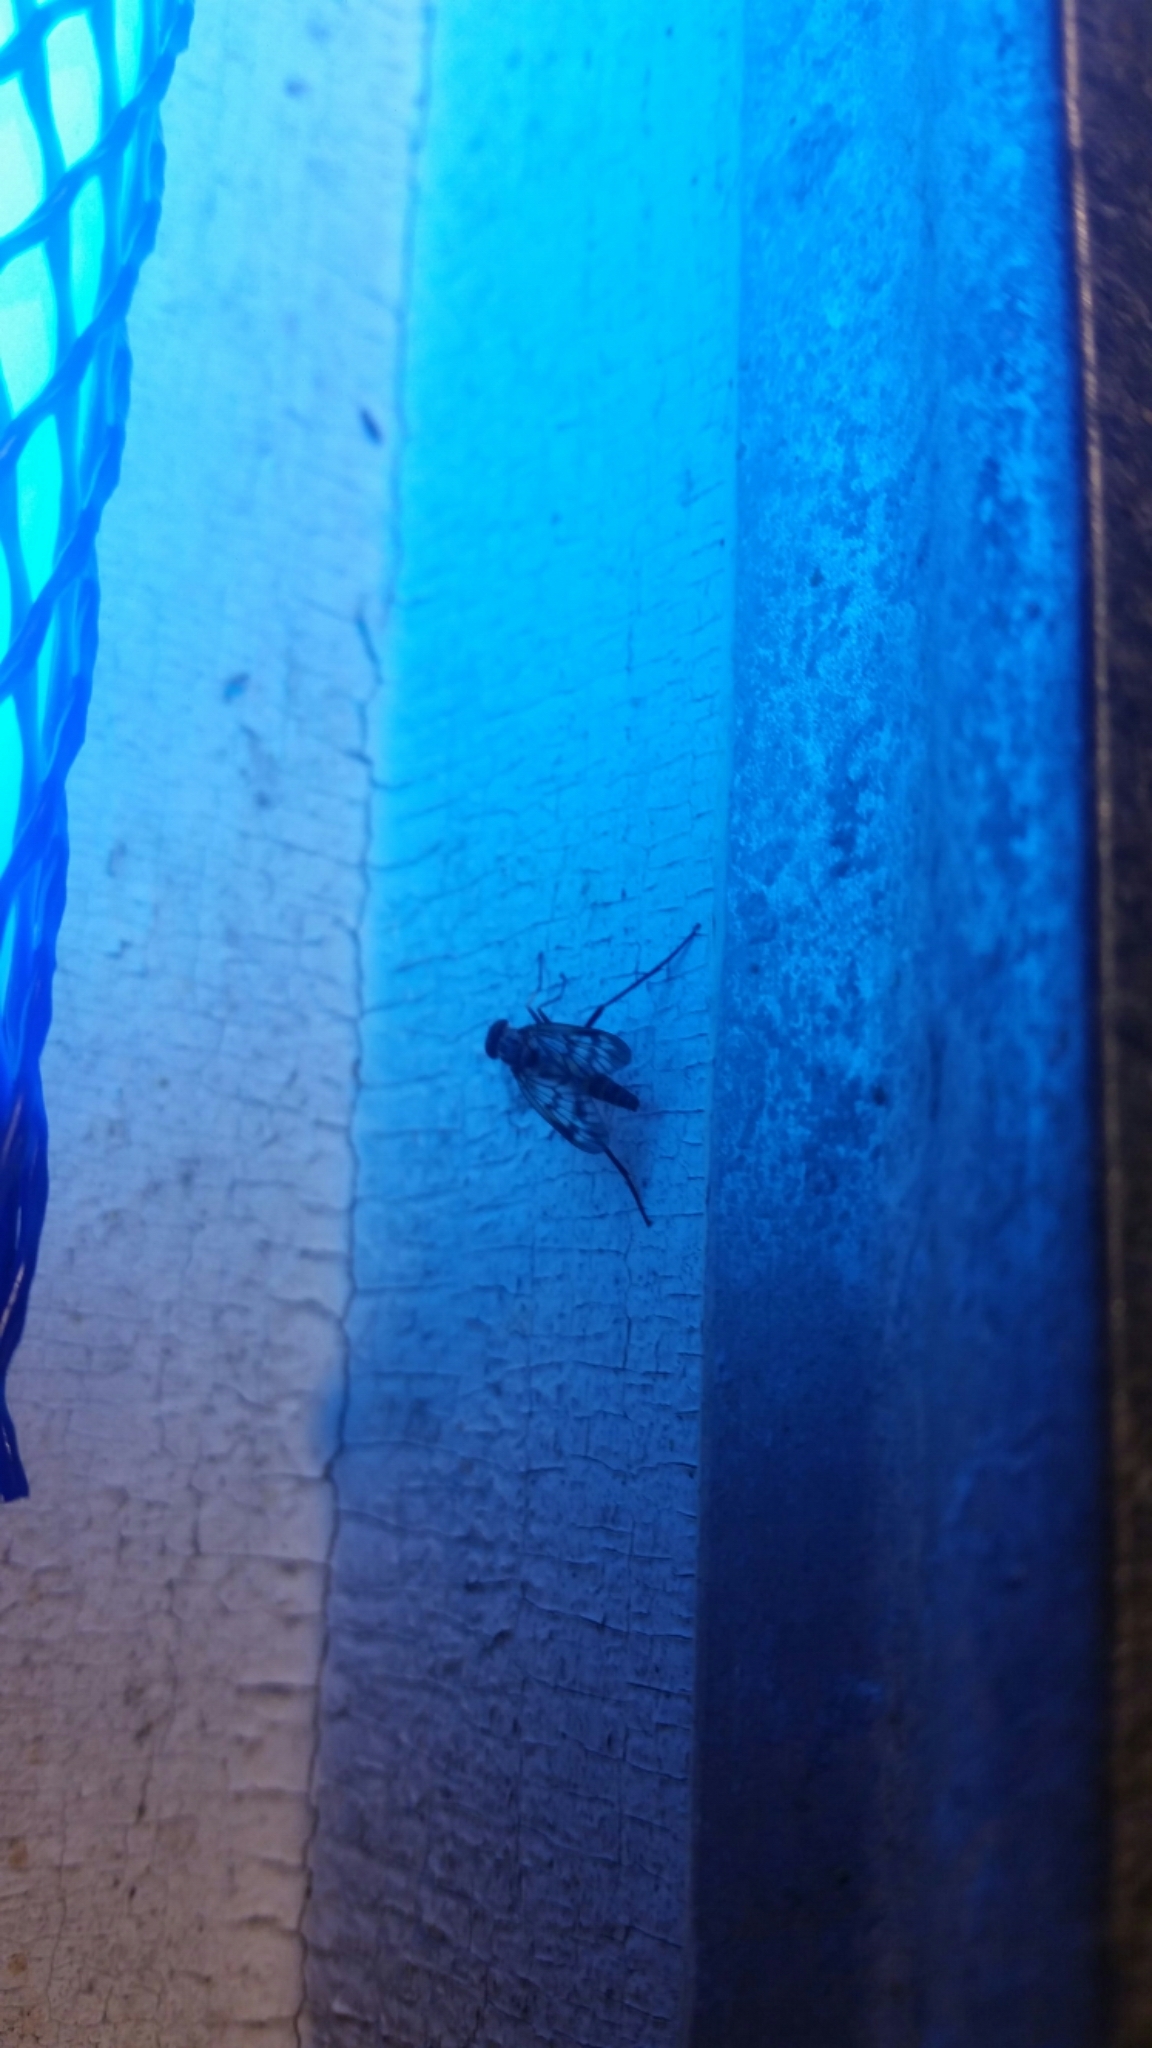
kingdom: Animalia
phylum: Arthropoda
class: Insecta
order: Diptera
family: Rhagionidae
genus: Rhagio
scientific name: Rhagio mystaceus
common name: Common snipe fly
